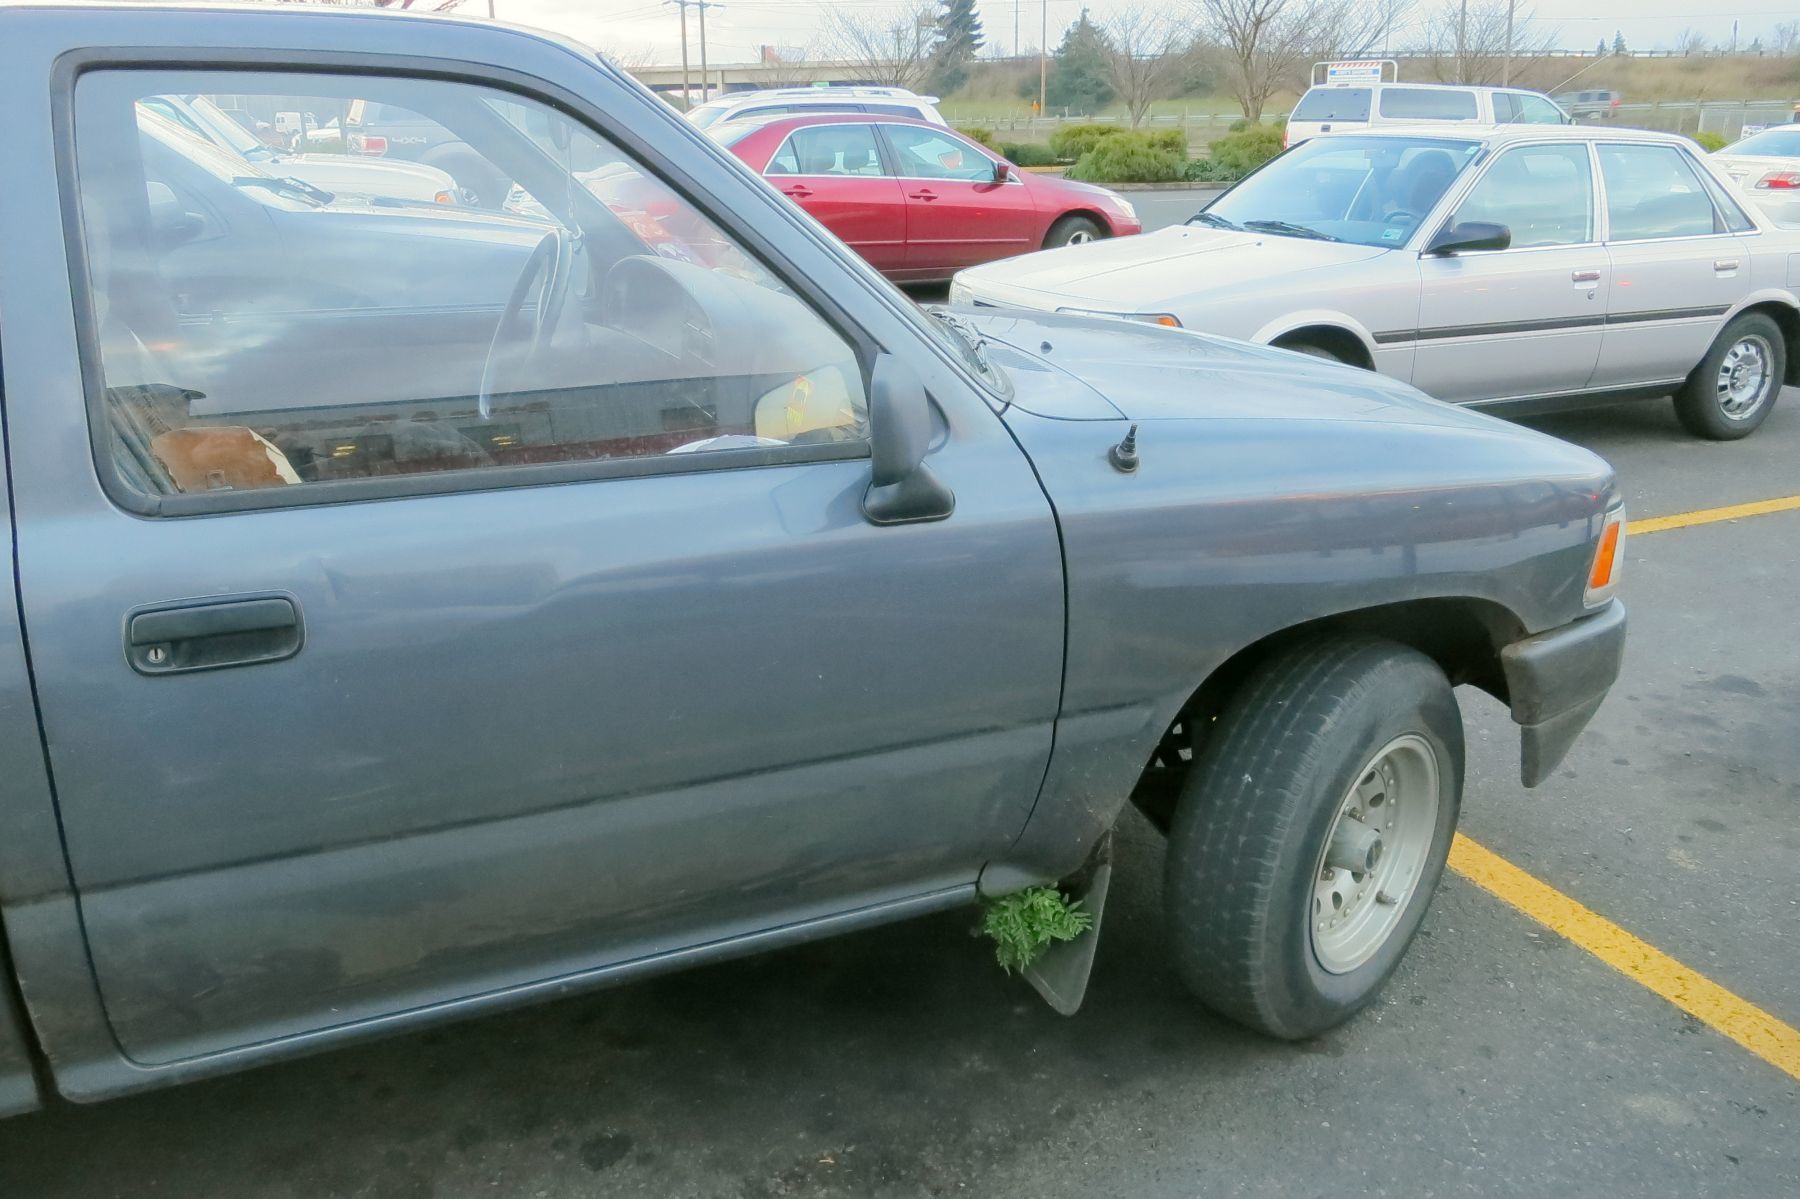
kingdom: Plantae
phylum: Tracheophyta
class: Polypodiopsida
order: Polypodiales
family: Polypodiaceae
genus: Polypodium
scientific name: Polypodium glycyrrhiza
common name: Licorice fern
